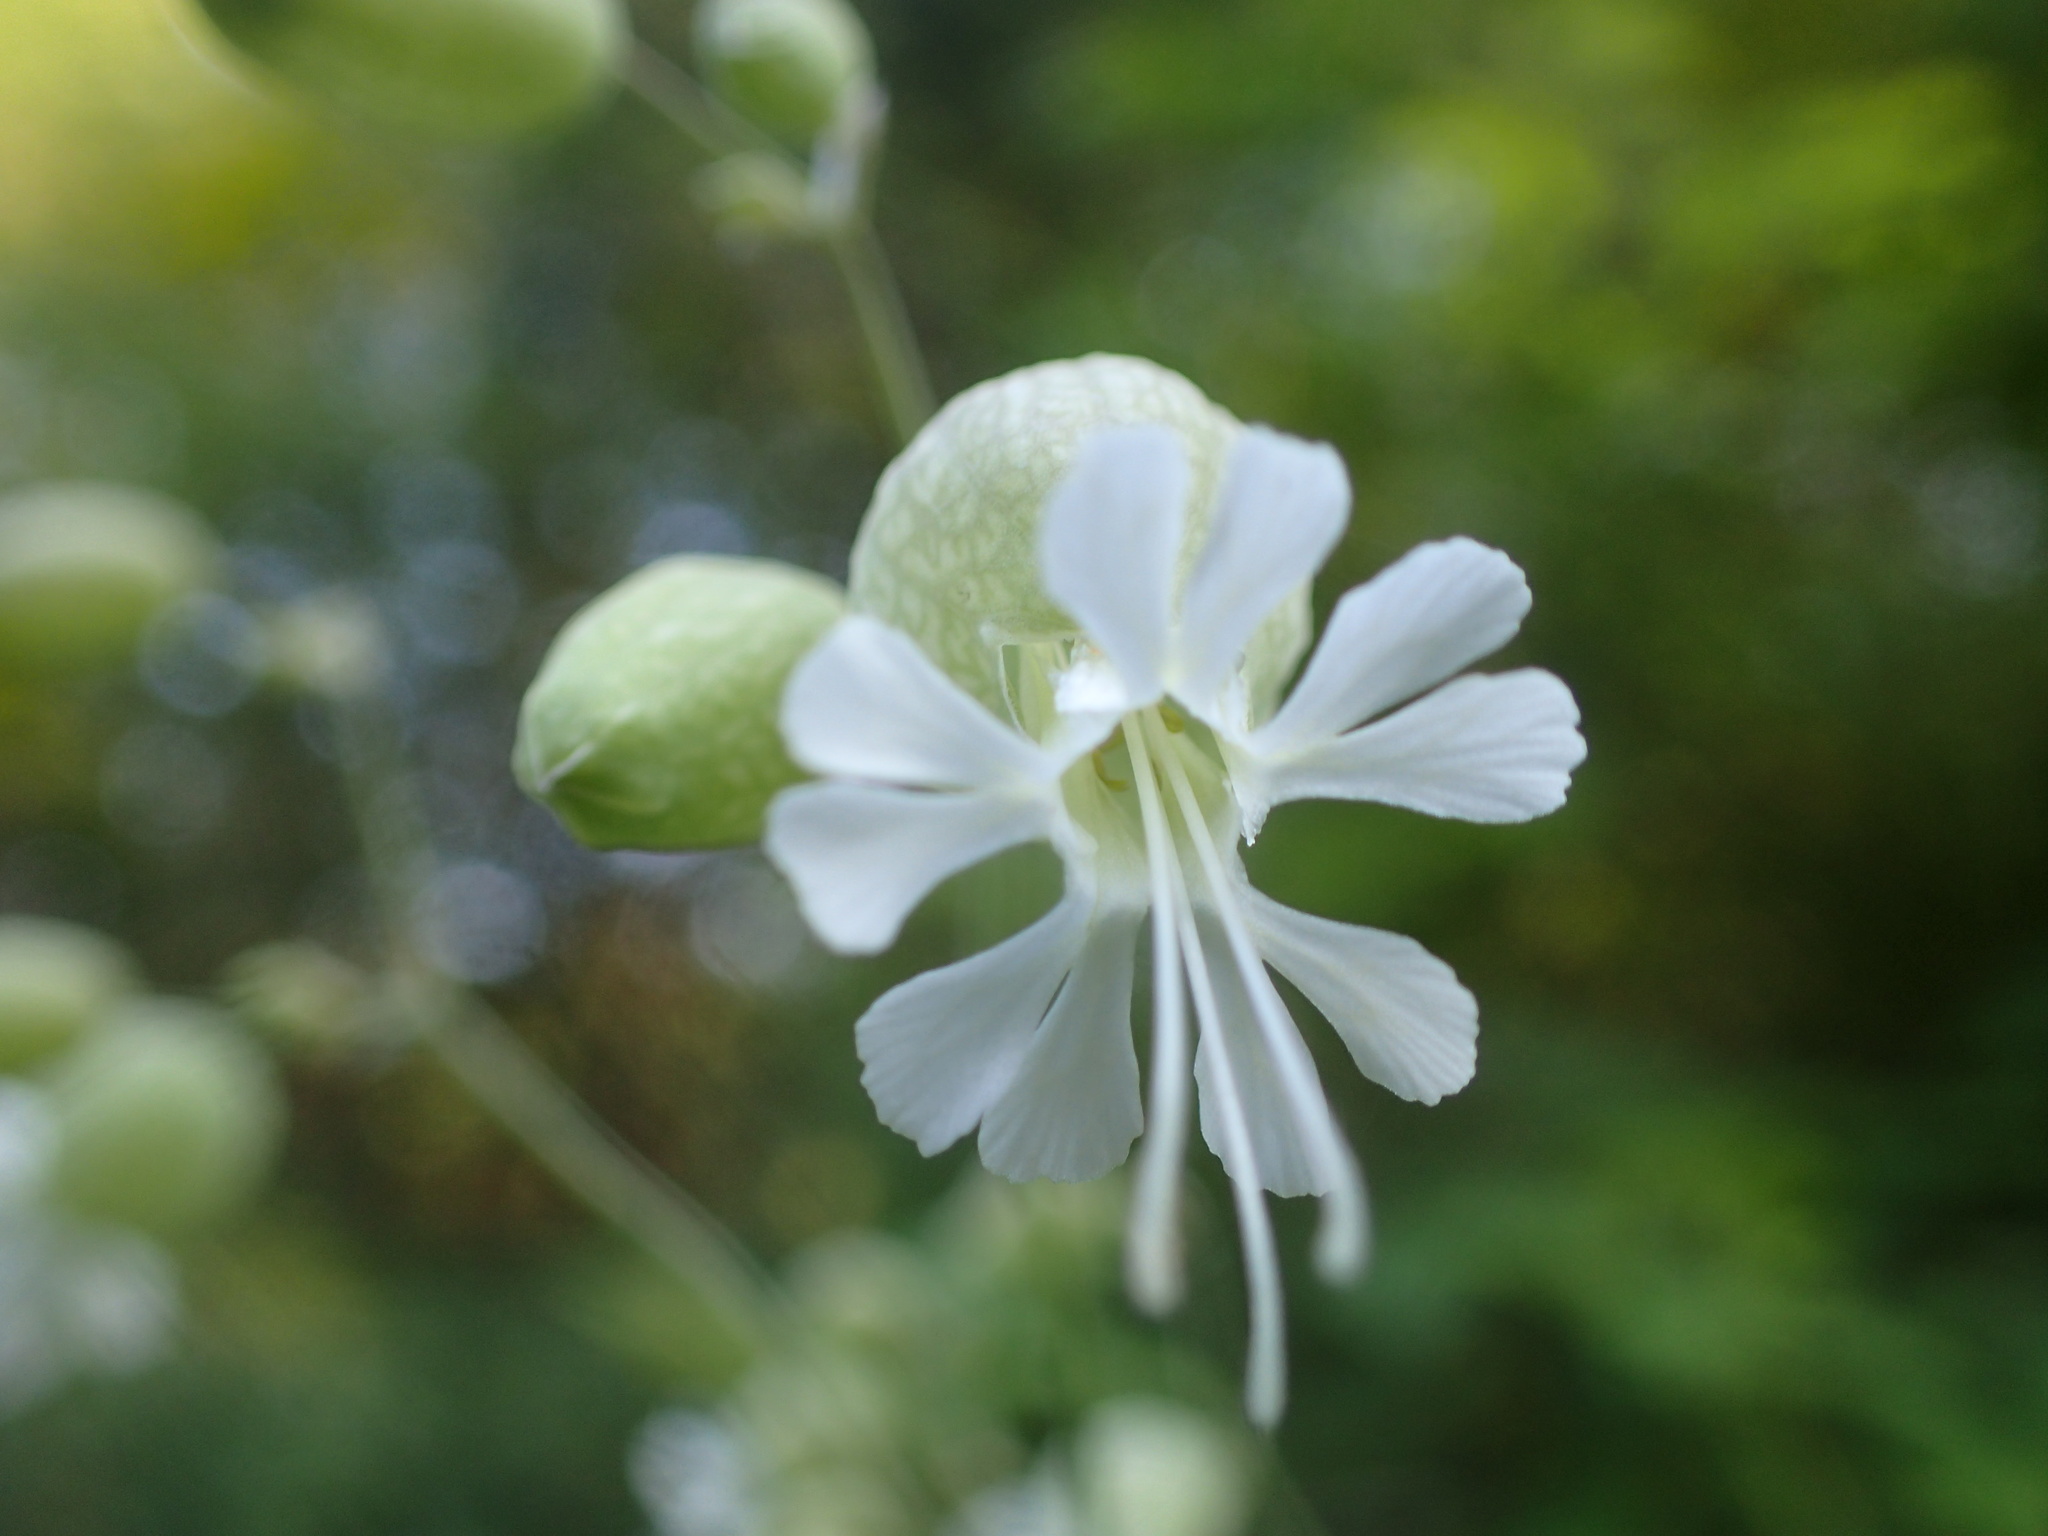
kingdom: Plantae
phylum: Tracheophyta
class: Magnoliopsida
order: Caryophyllales
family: Caryophyllaceae
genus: Silene
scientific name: Silene vulgaris
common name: Bladder campion
